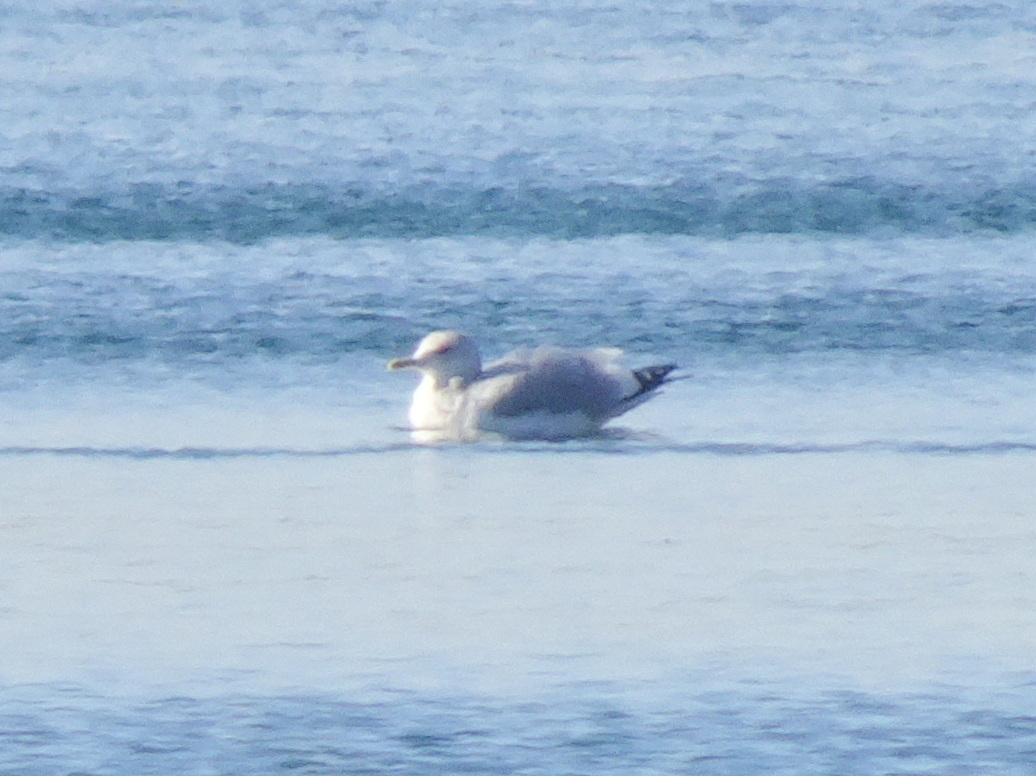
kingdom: Animalia
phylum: Chordata
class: Aves
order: Charadriiformes
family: Laridae
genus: Larus
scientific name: Larus argentatus
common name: Herring gull
